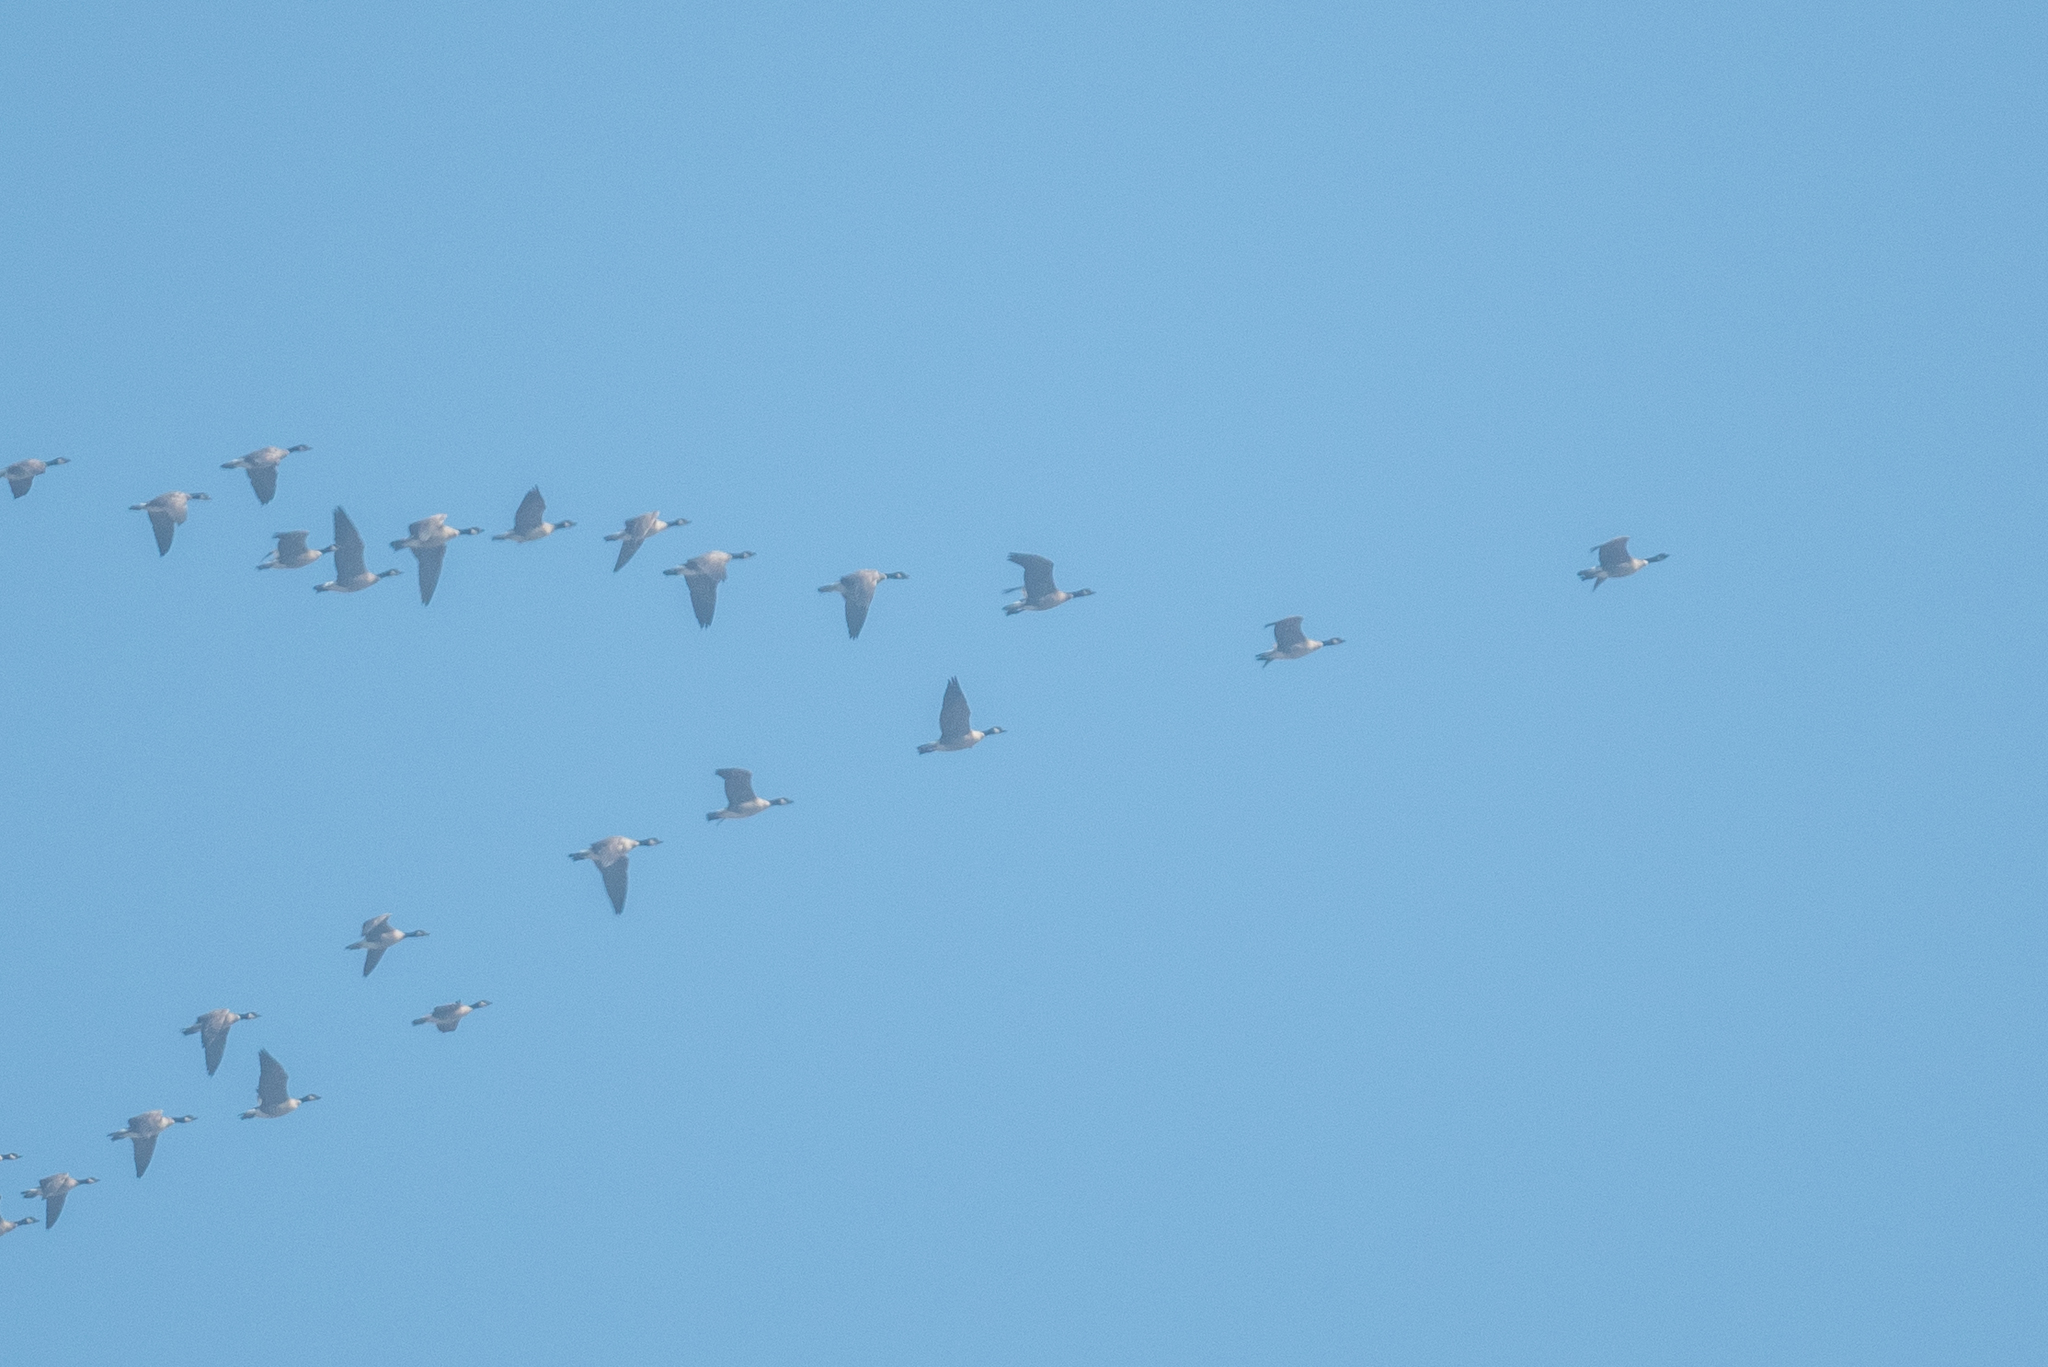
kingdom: Animalia
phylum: Chordata
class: Aves
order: Anseriformes
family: Anatidae
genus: Branta
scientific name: Branta hutchinsii
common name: Cackling goose
